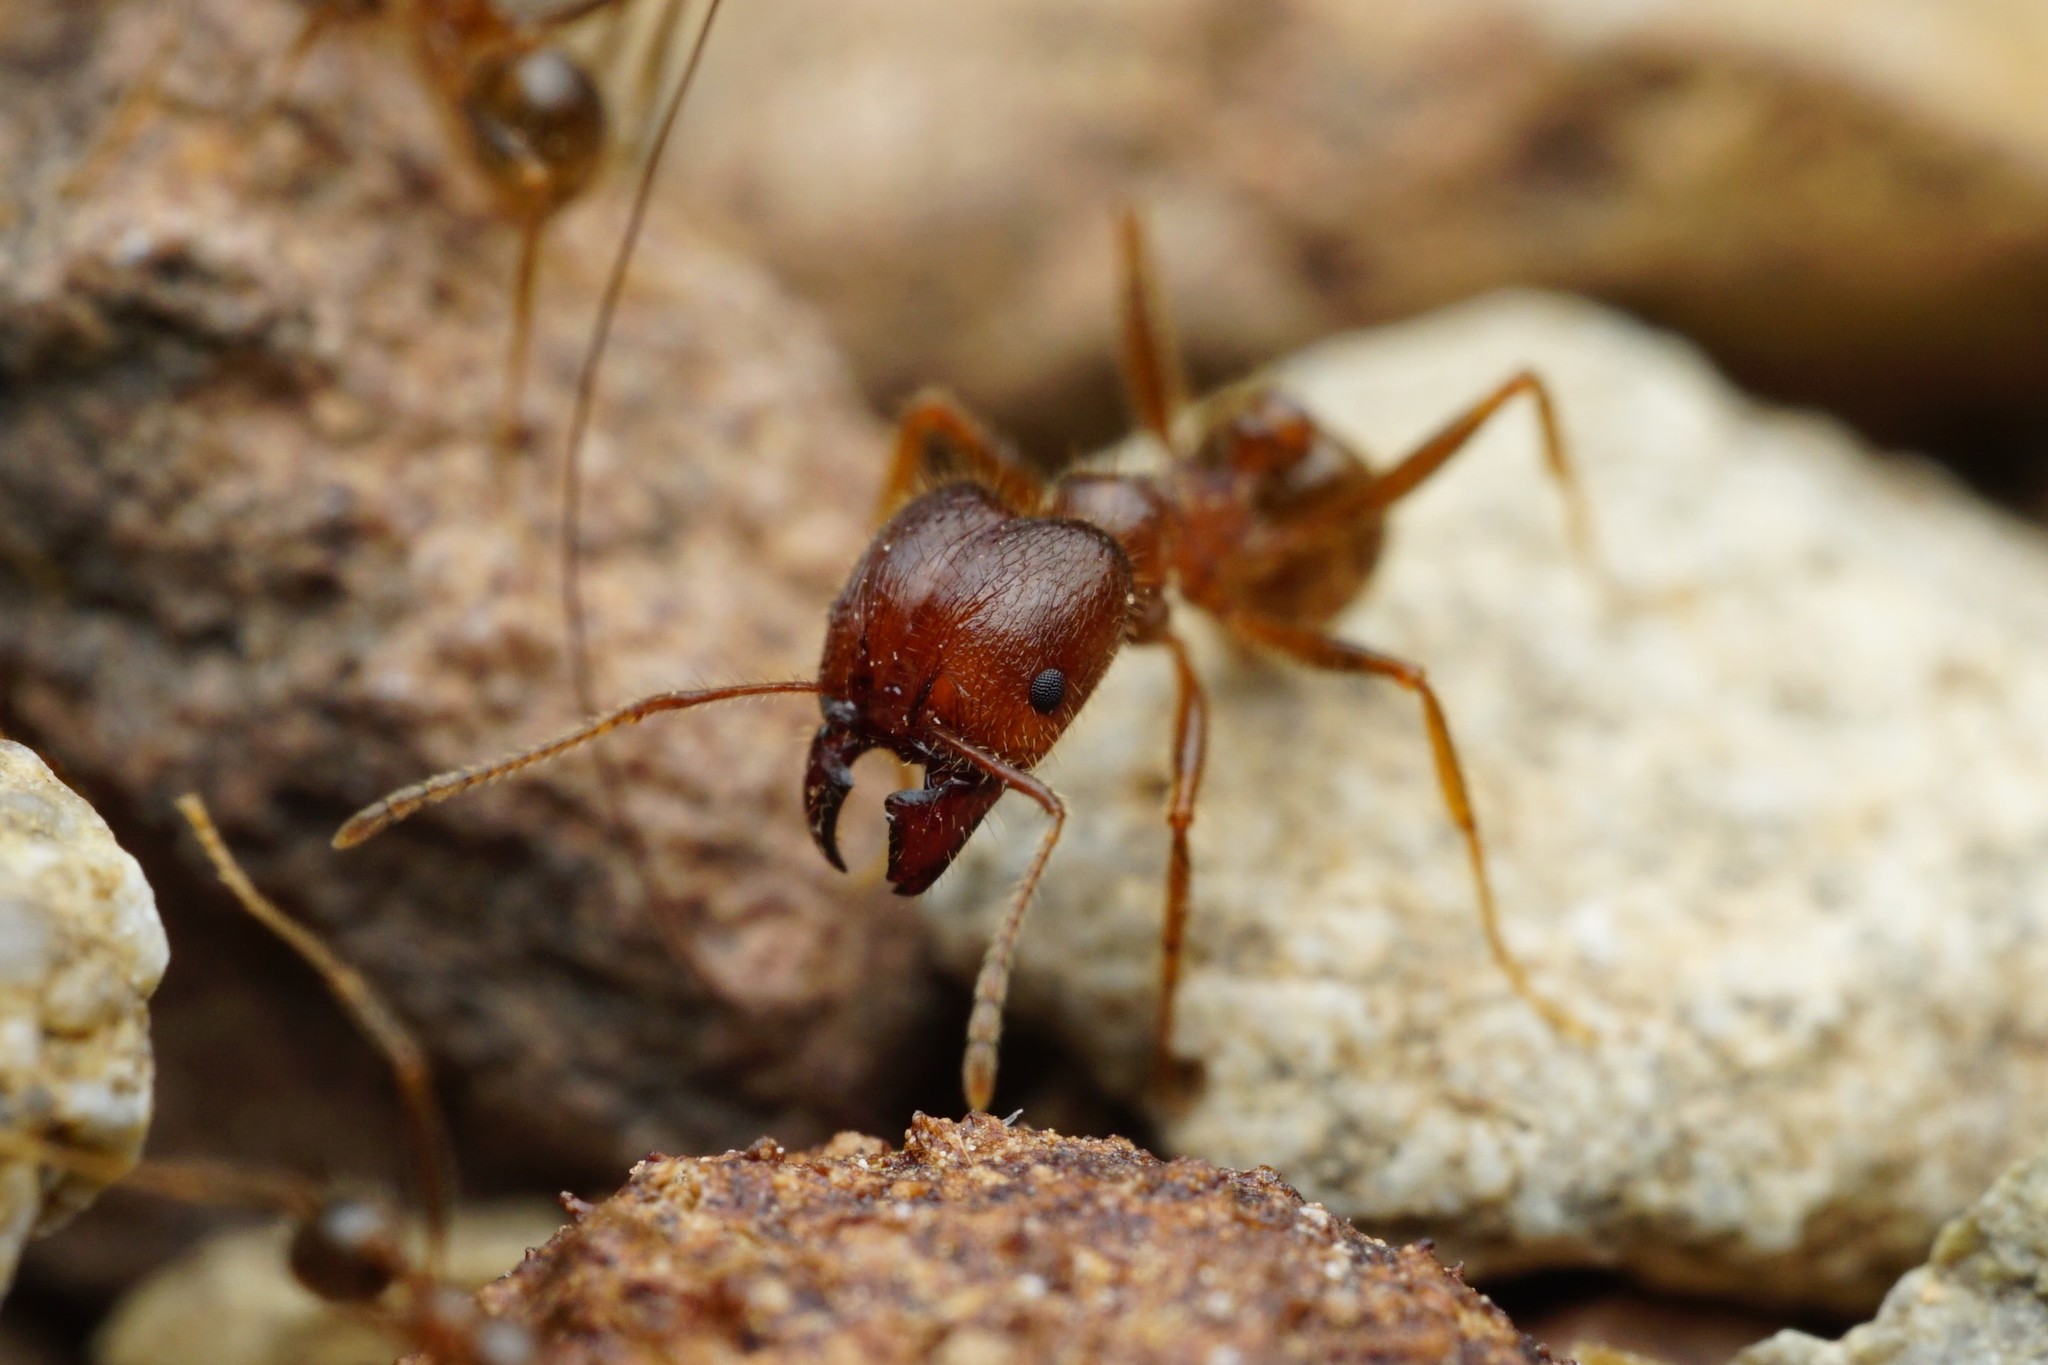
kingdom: Animalia
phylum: Arthropoda
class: Insecta
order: Hymenoptera
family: Formicidae
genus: Pheidole
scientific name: Pheidole obtusospinosa
